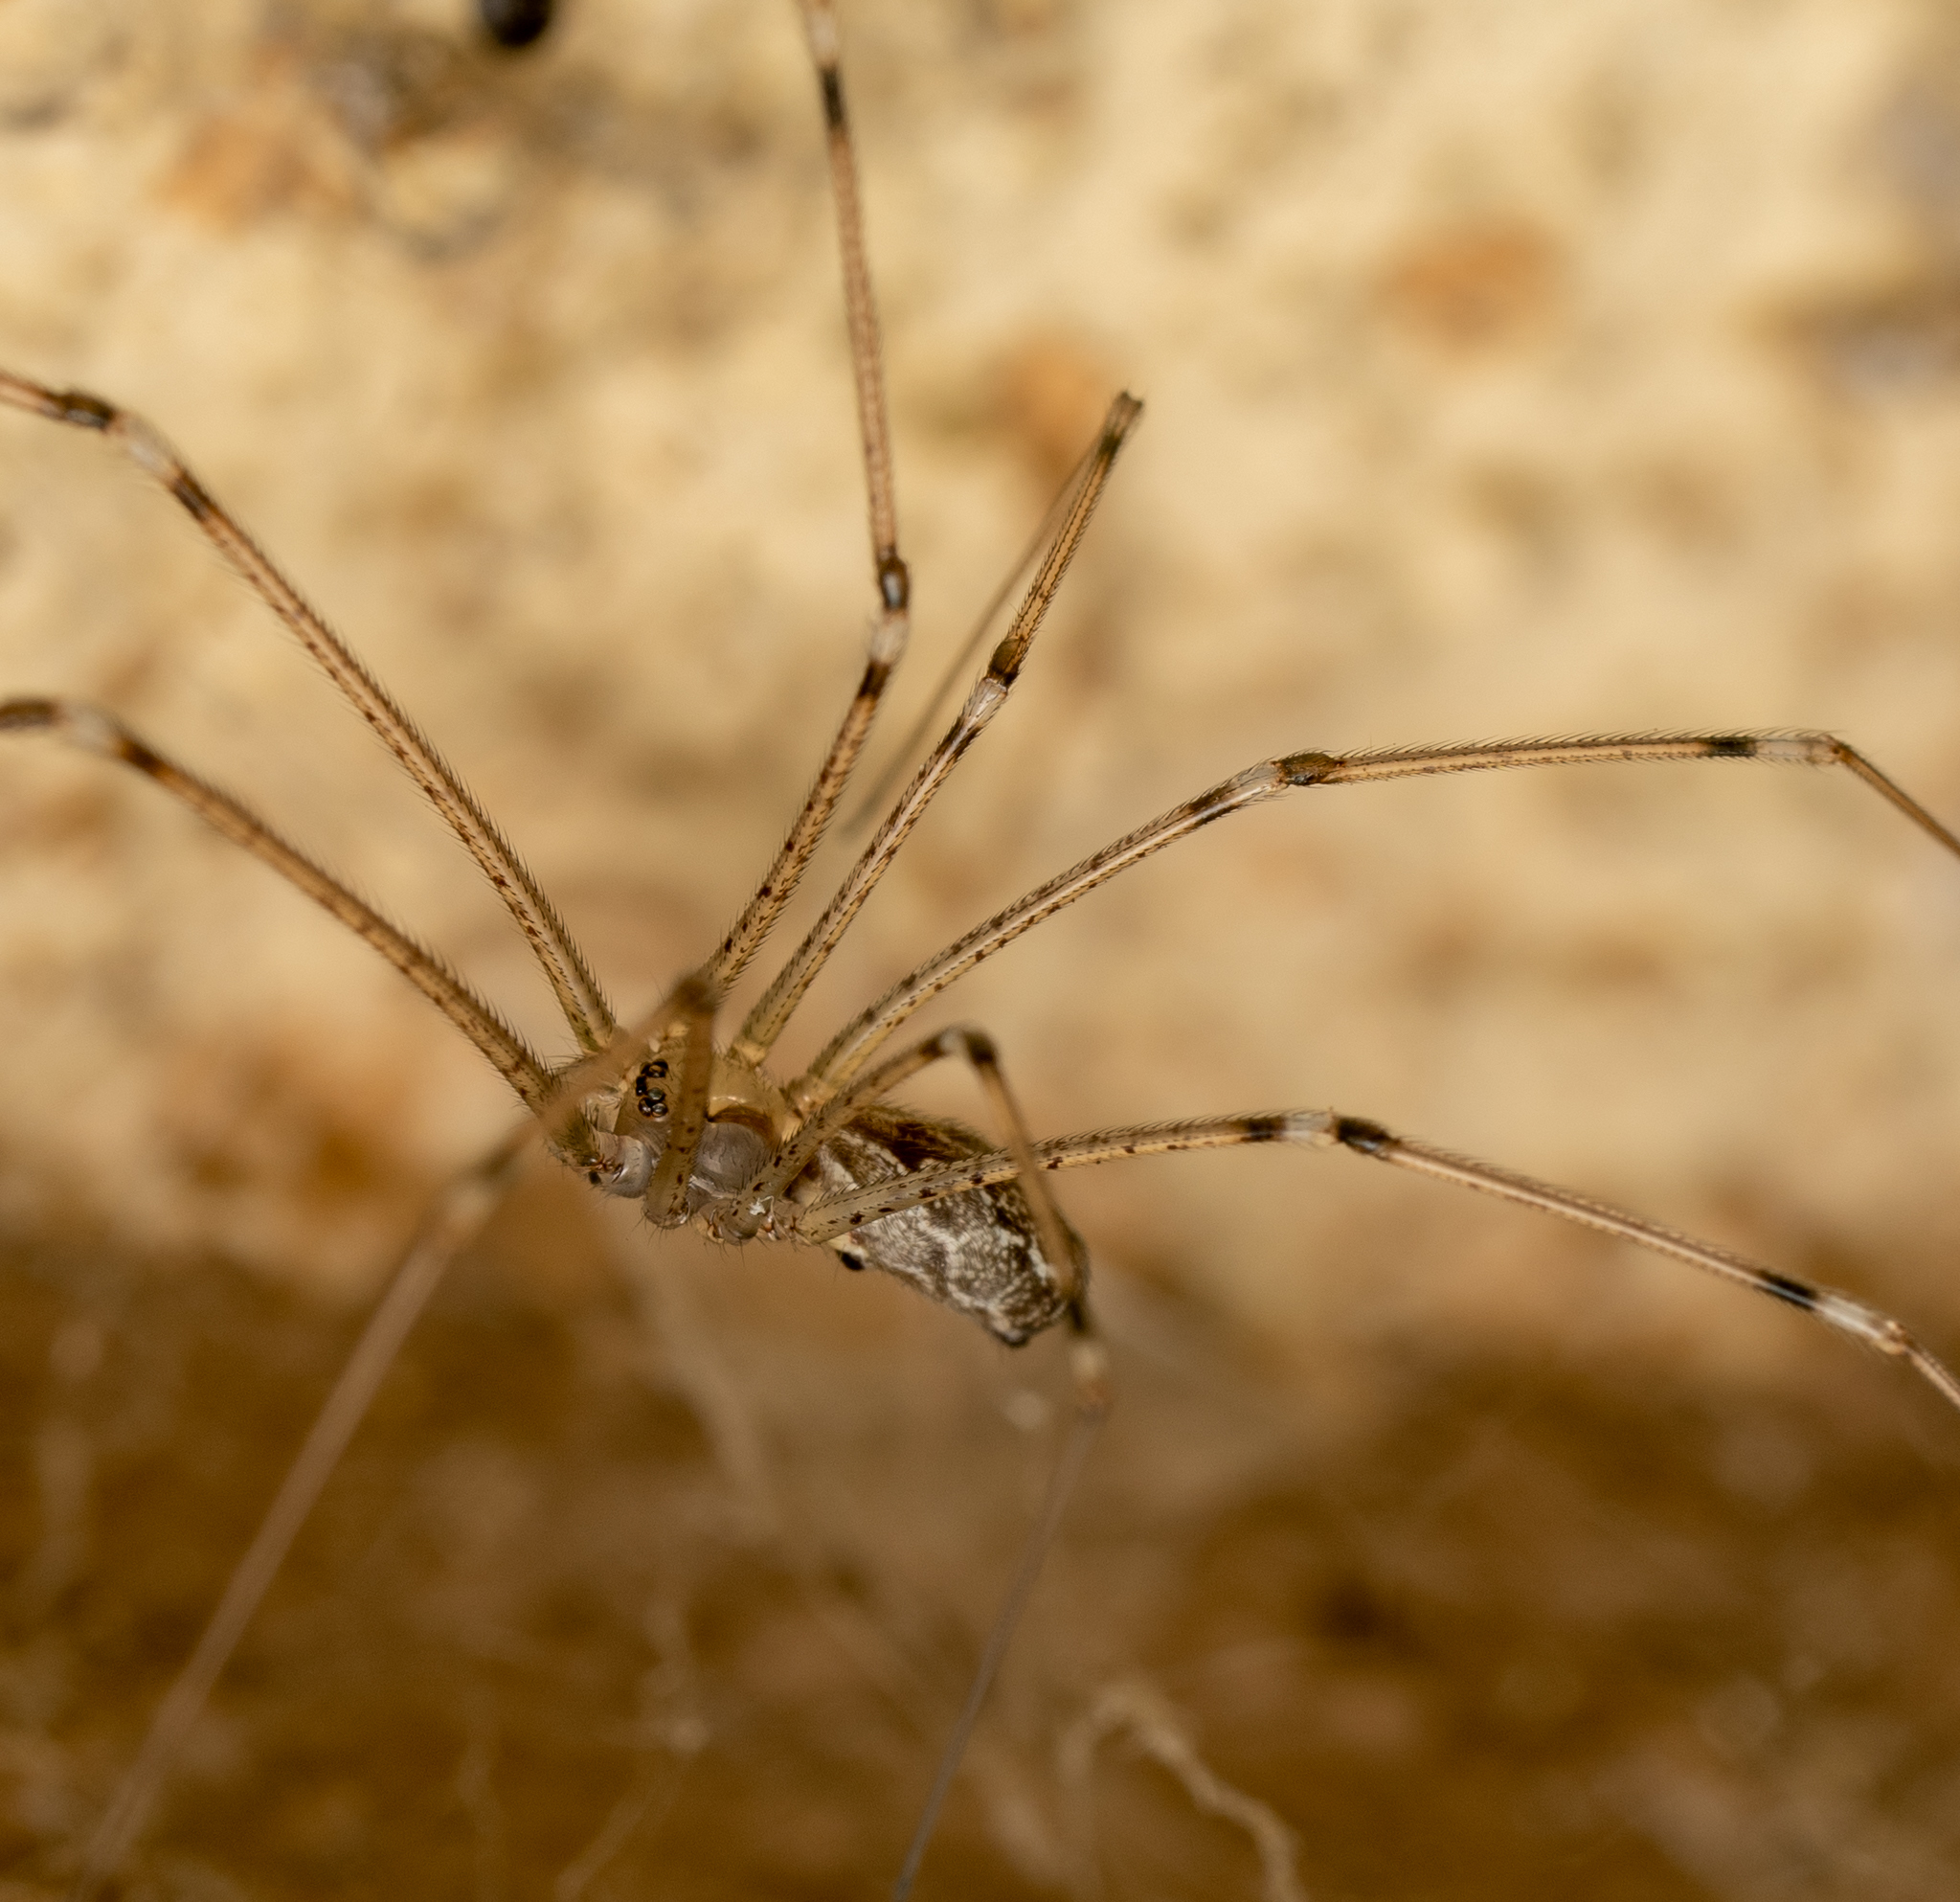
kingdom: Animalia
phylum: Arthropoda
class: Arachnida
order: Araneae
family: Pholcidae
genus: Holocnemus
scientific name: Holocnemus pluchei
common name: Marbled cellar spider
